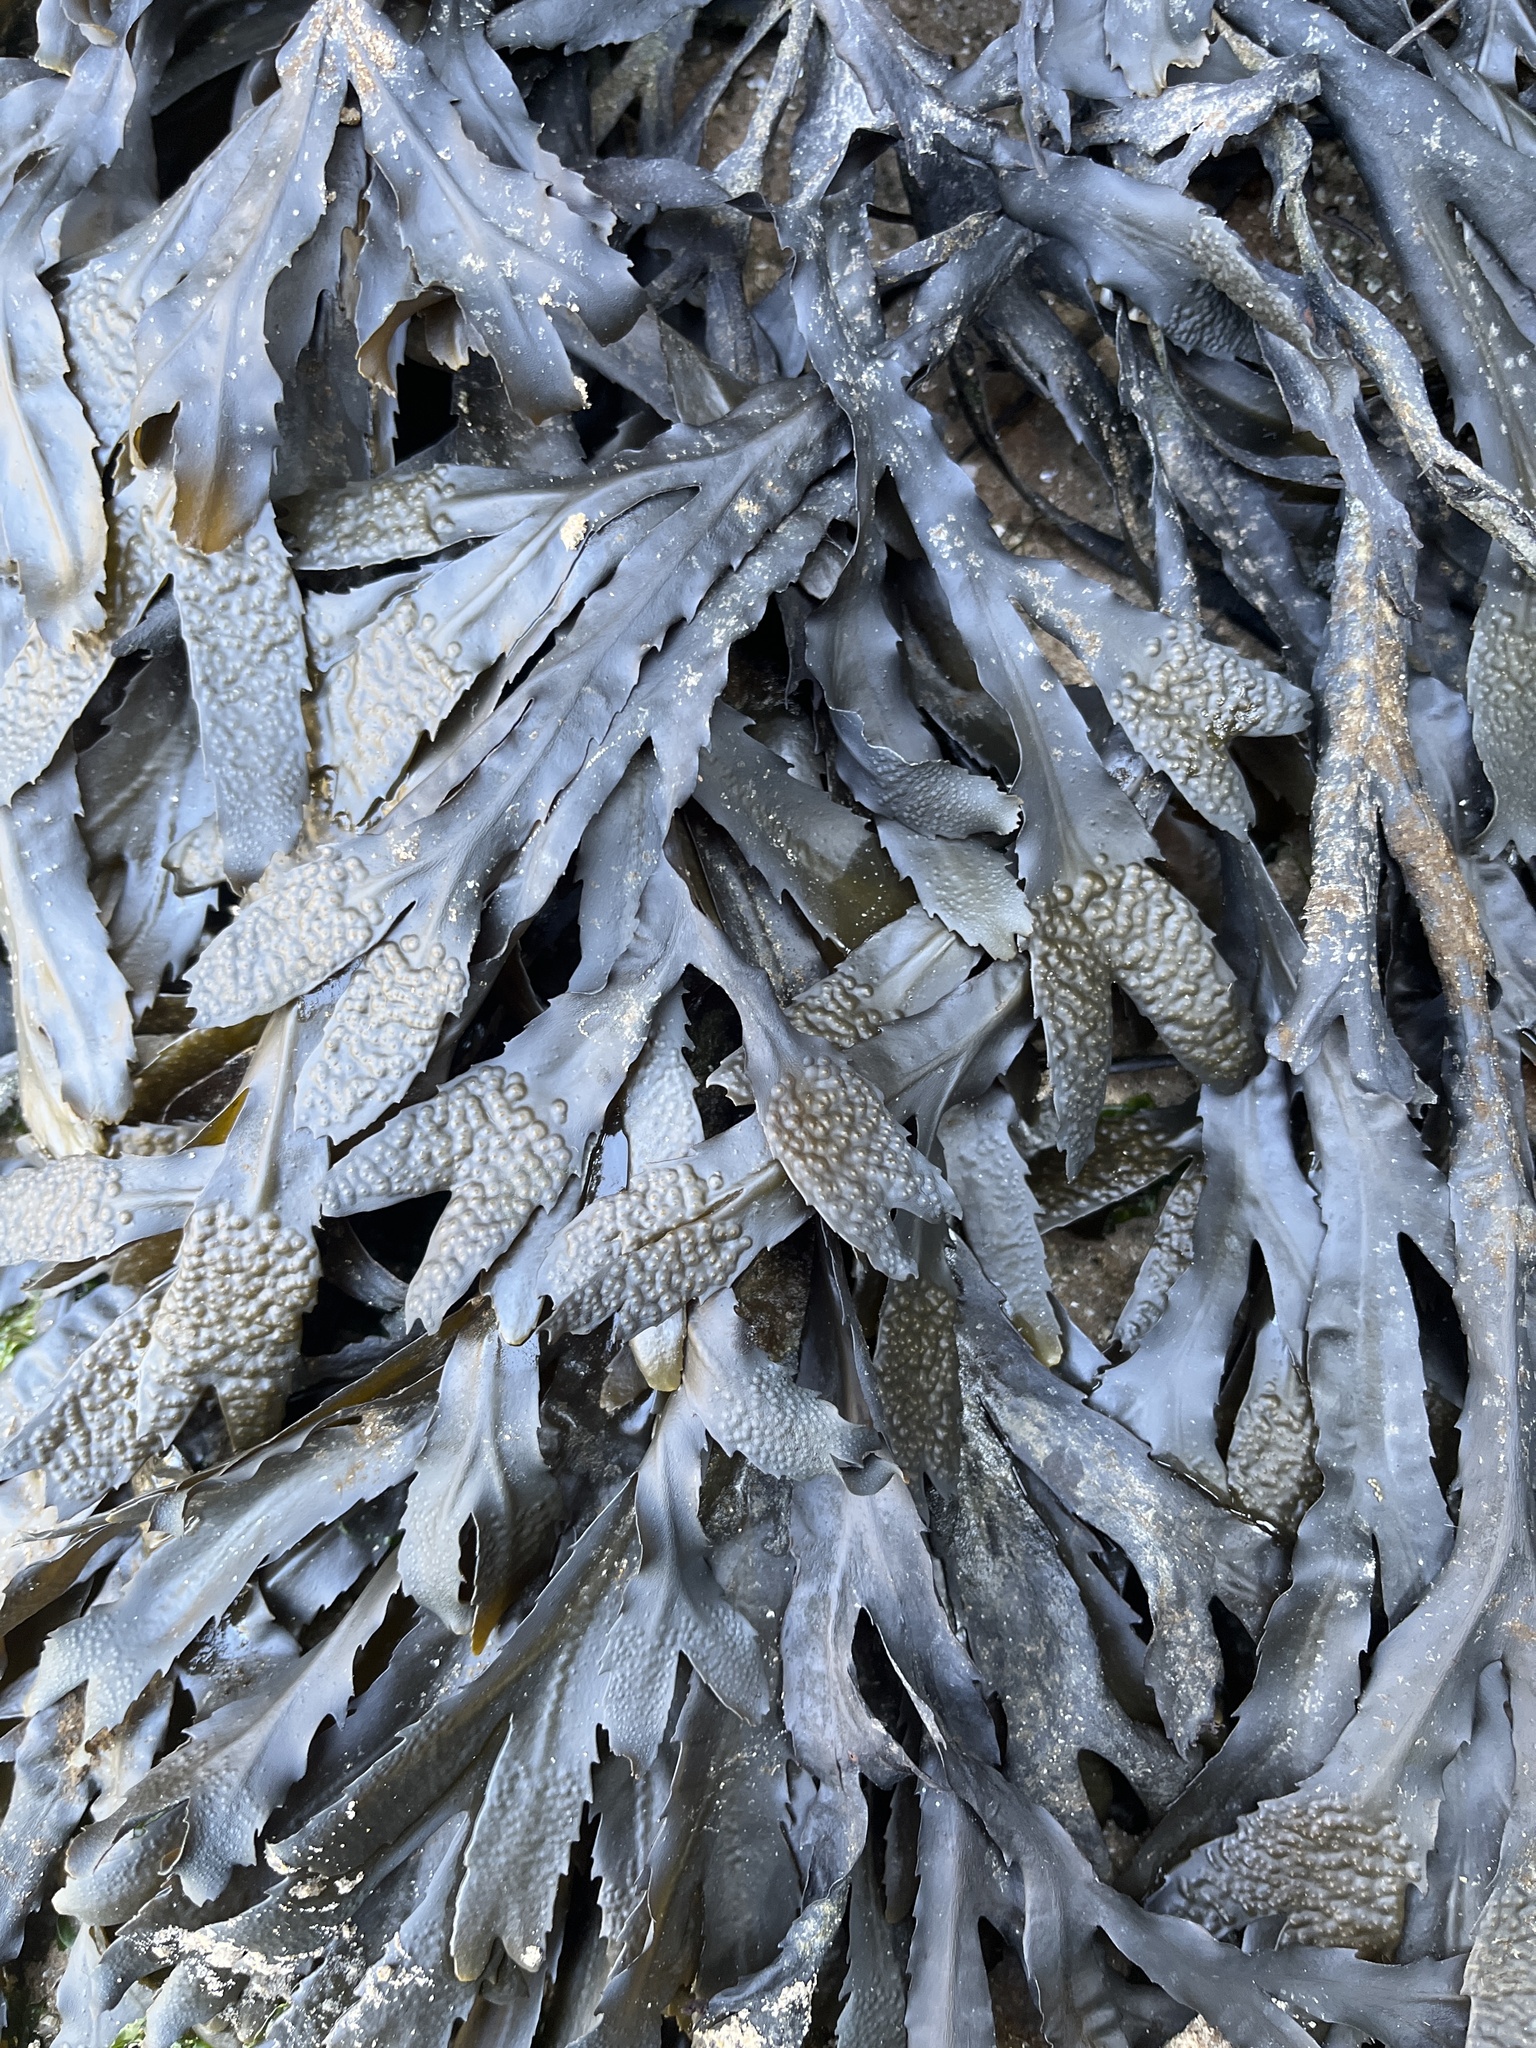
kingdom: Chromista
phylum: Ochrophyta
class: Phaeophyceae
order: Fucales
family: Fucaceae
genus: Fucus
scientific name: Fucus serratus
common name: Toothed wrack
